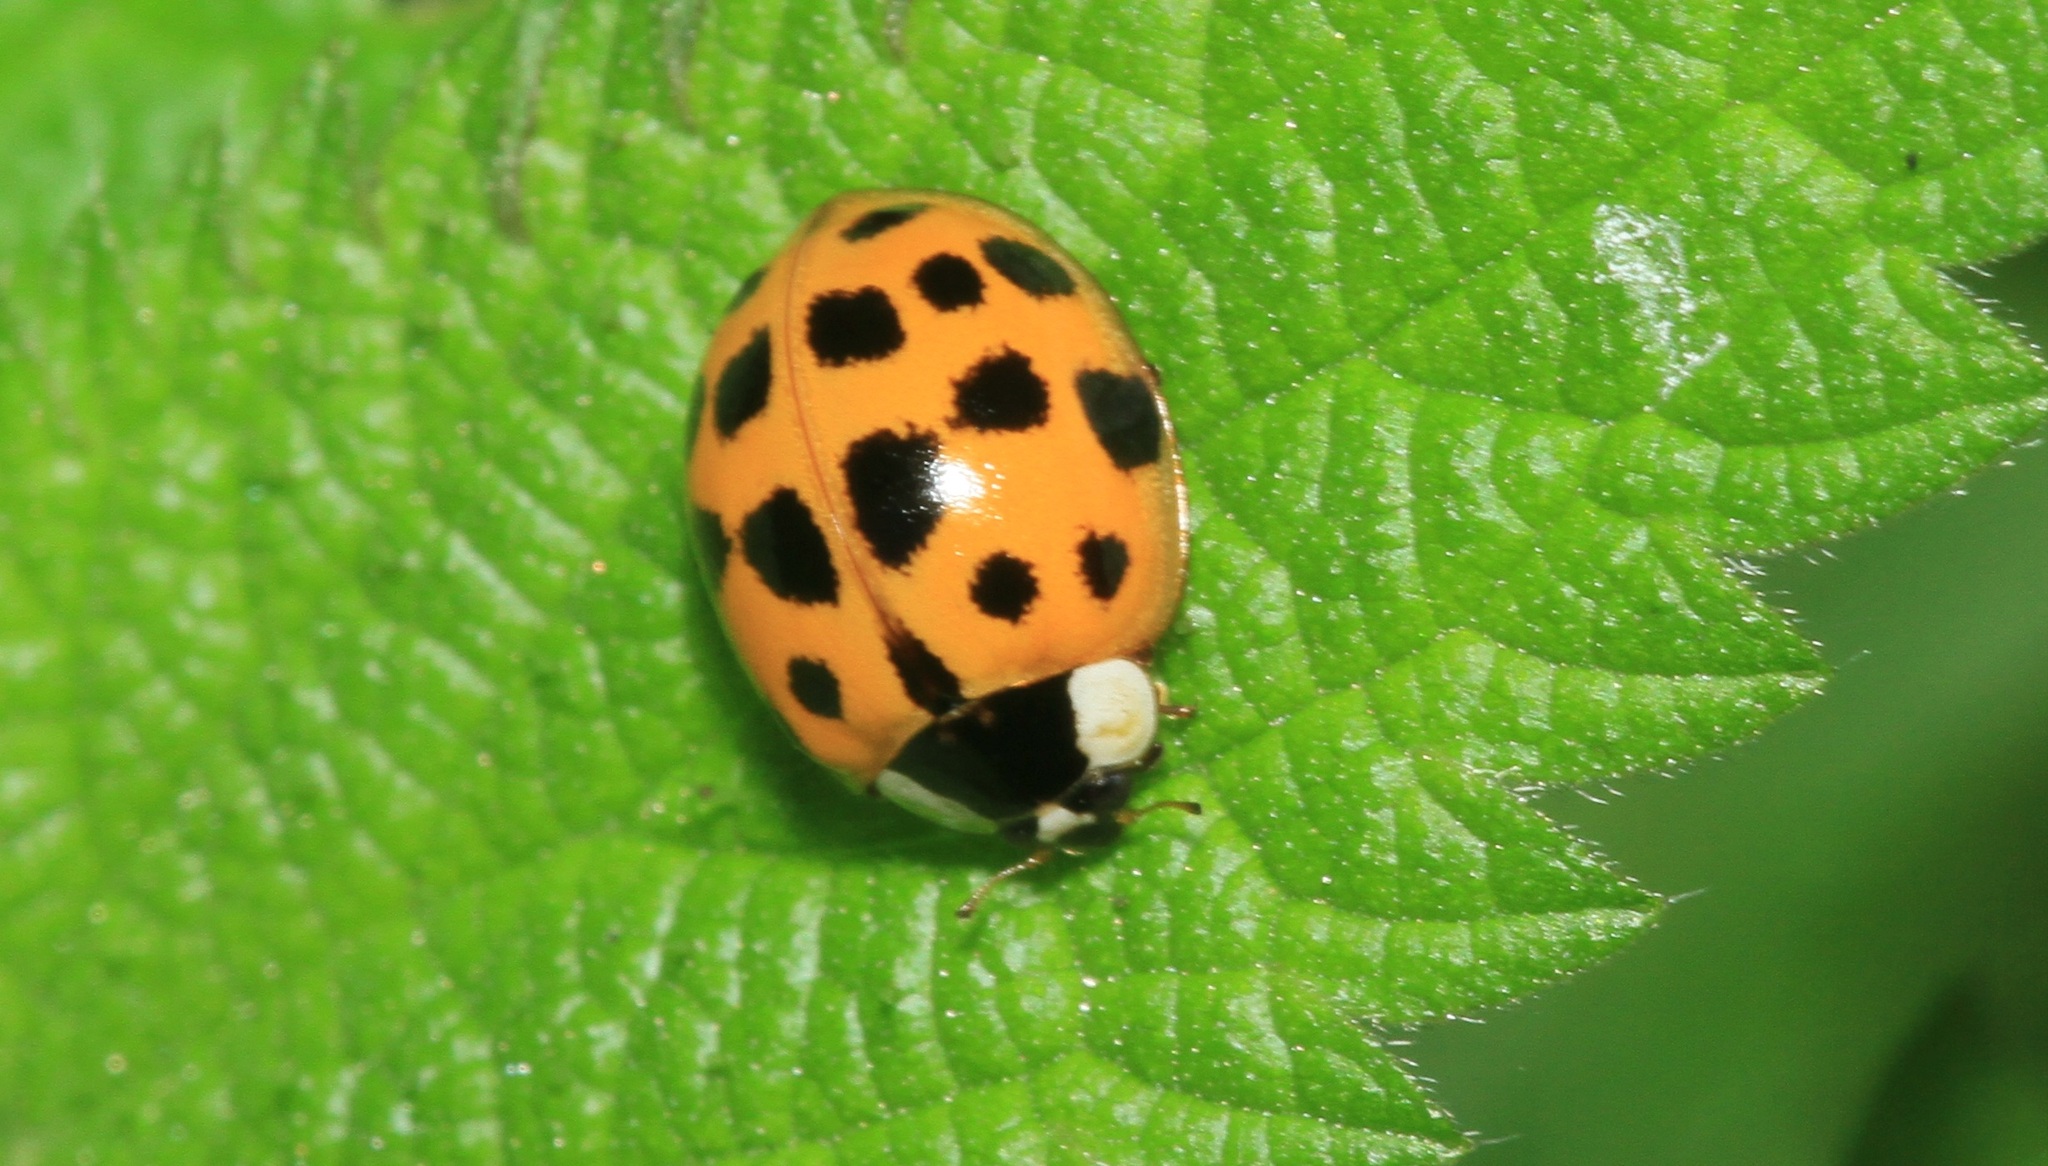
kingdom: Animalia
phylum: Arthropoda
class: Insecta
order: Coleoptera
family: Coccinellidae
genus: Harmonia
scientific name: Harmonia axyridis
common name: Harlequin ladybird
